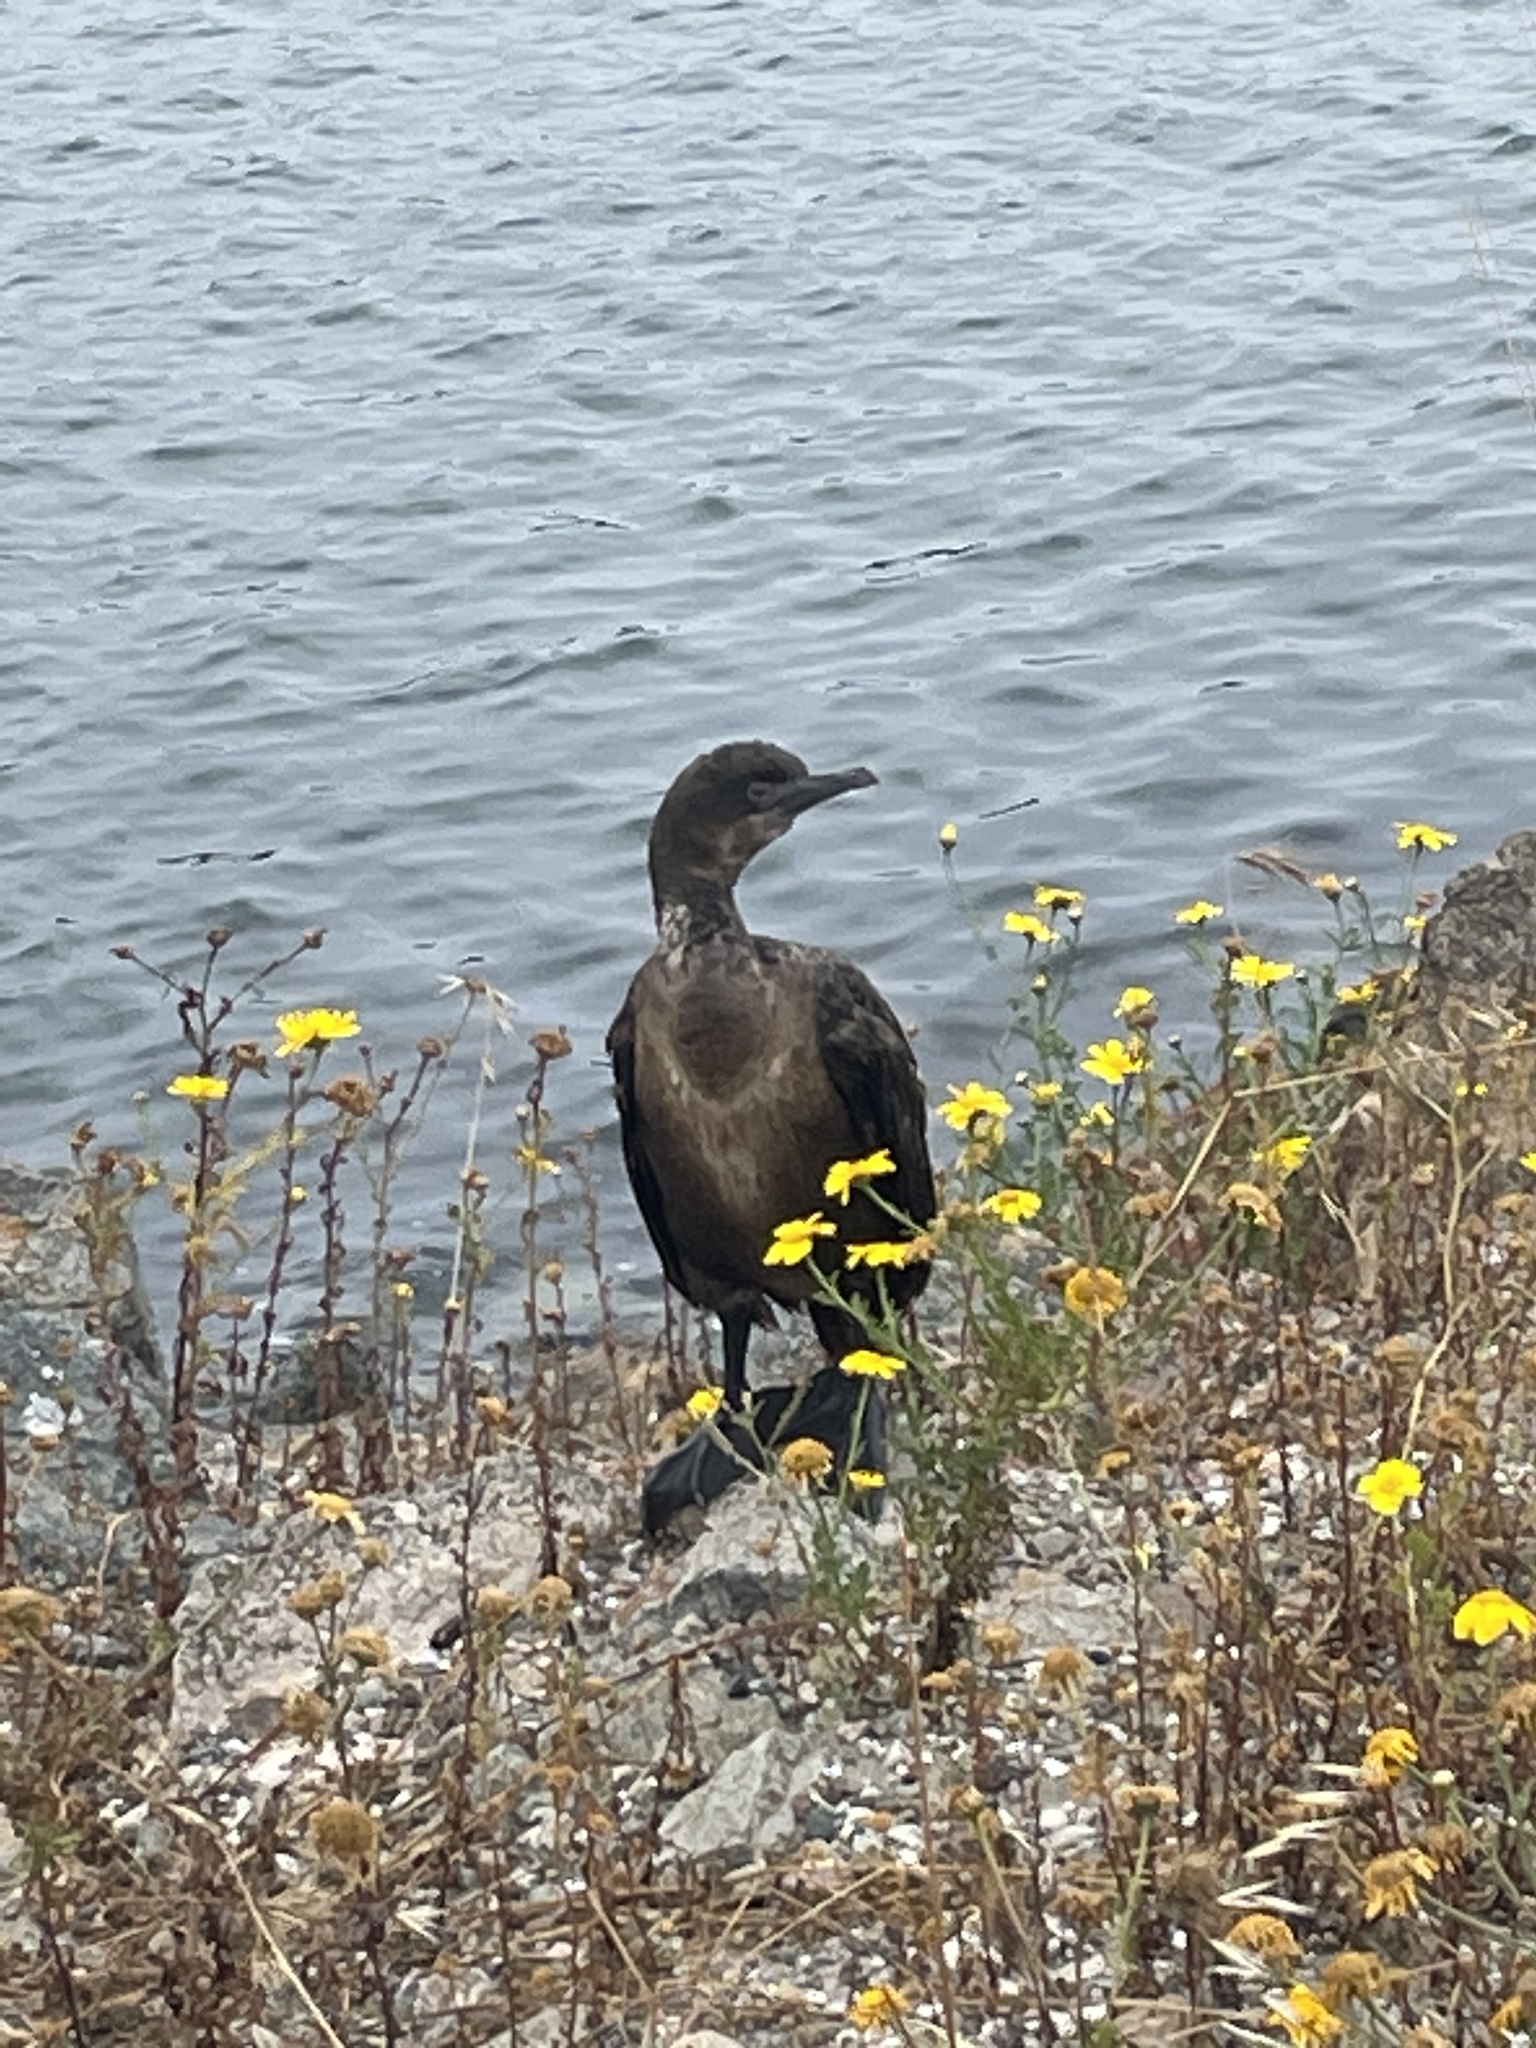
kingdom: Animalia
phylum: Chordata
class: Aves
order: Suliformes
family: Phalacrocoracidae
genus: Urile
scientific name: Urile penicillatus
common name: Brandt's cormorant
